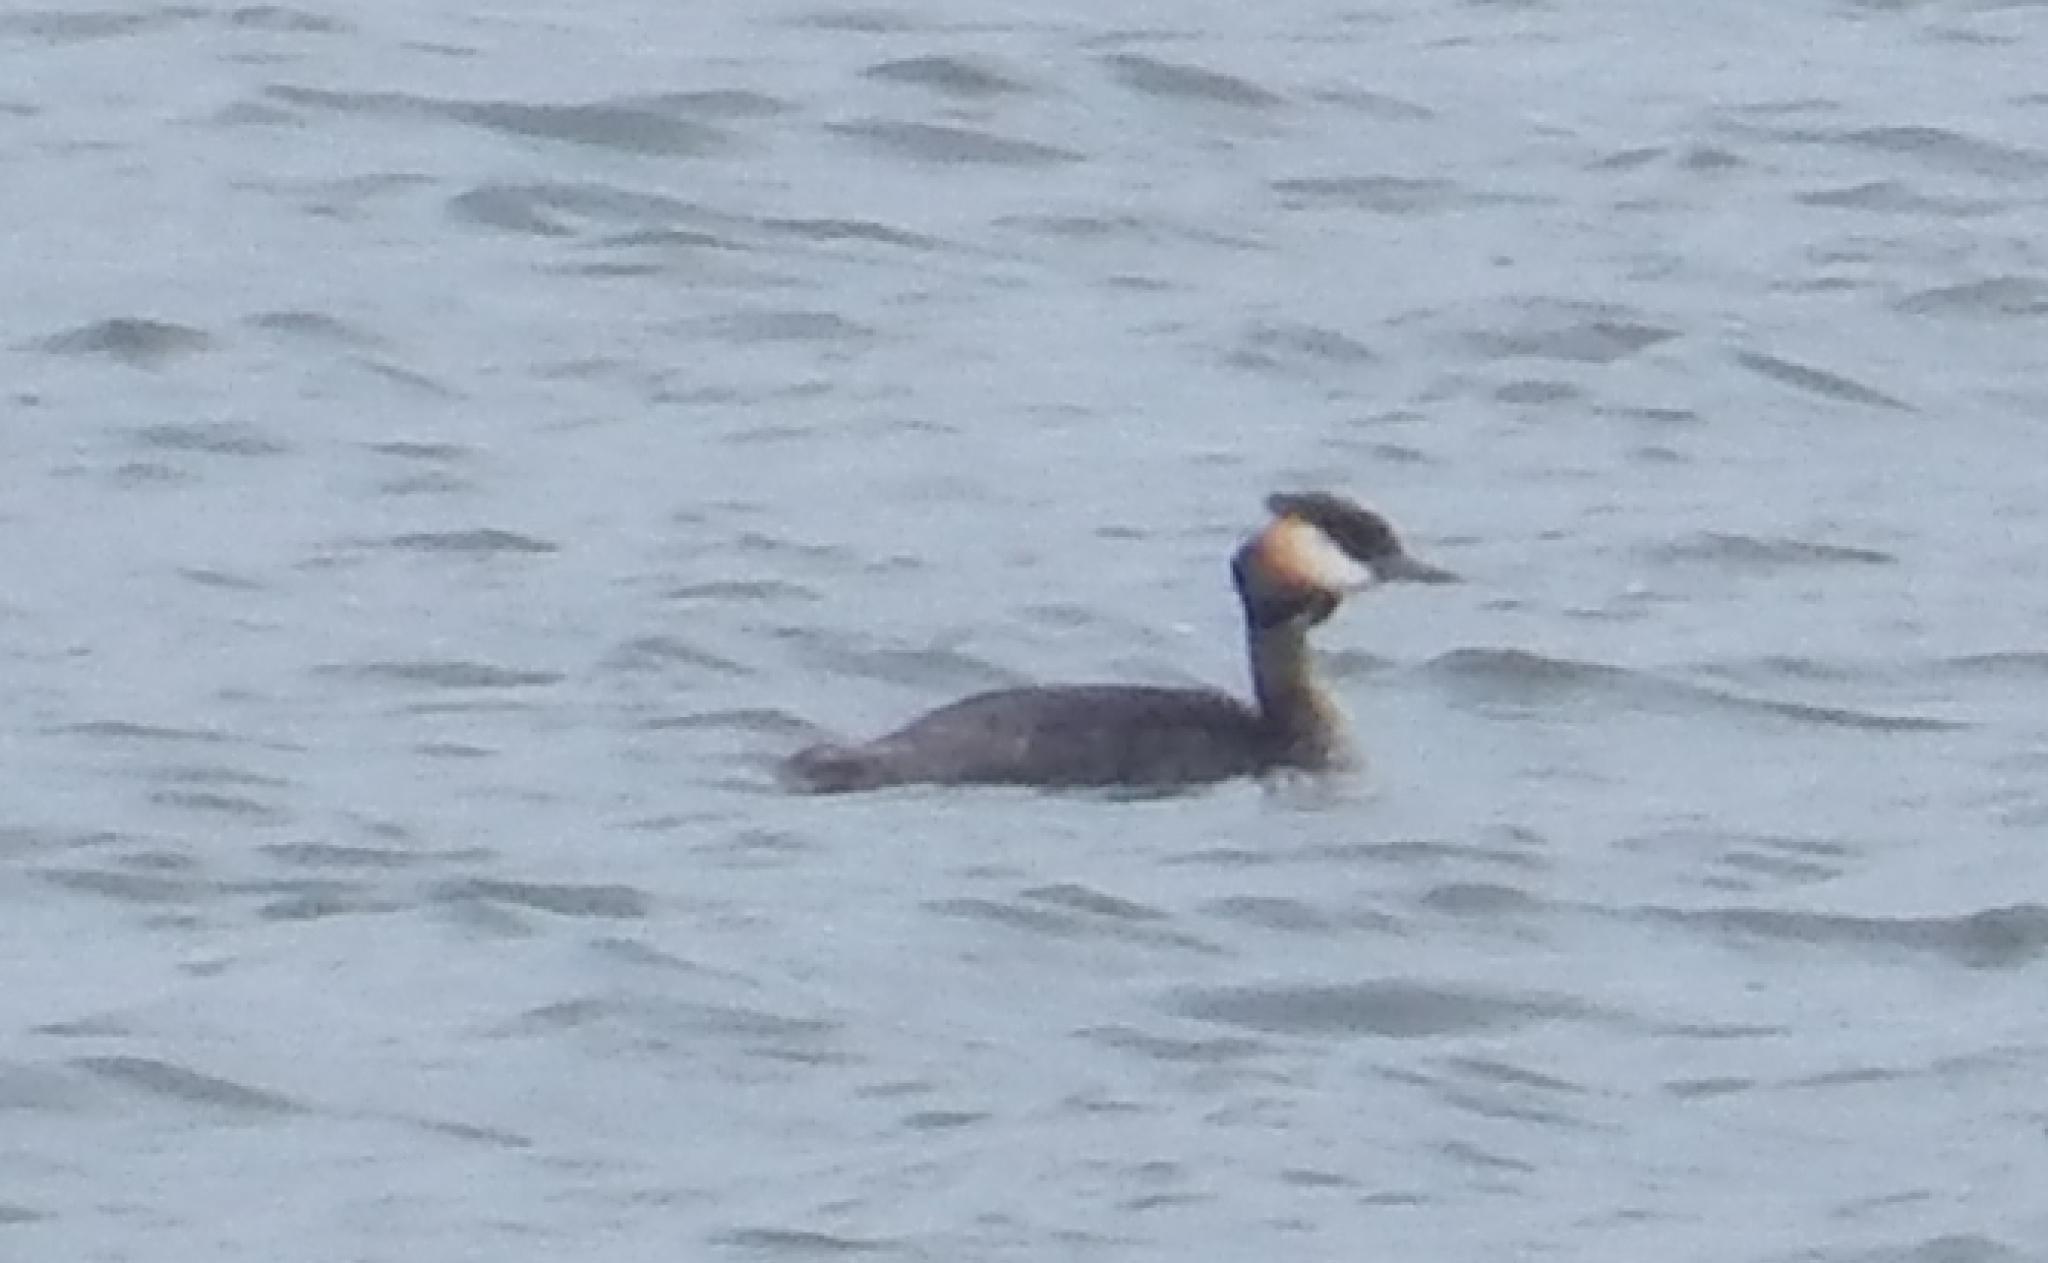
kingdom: Animalia
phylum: Chordata
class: Aves
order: Podicipediformes
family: Podicipedidae
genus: Podiceps
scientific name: Podiceps cristatus
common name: Great crested grebe
